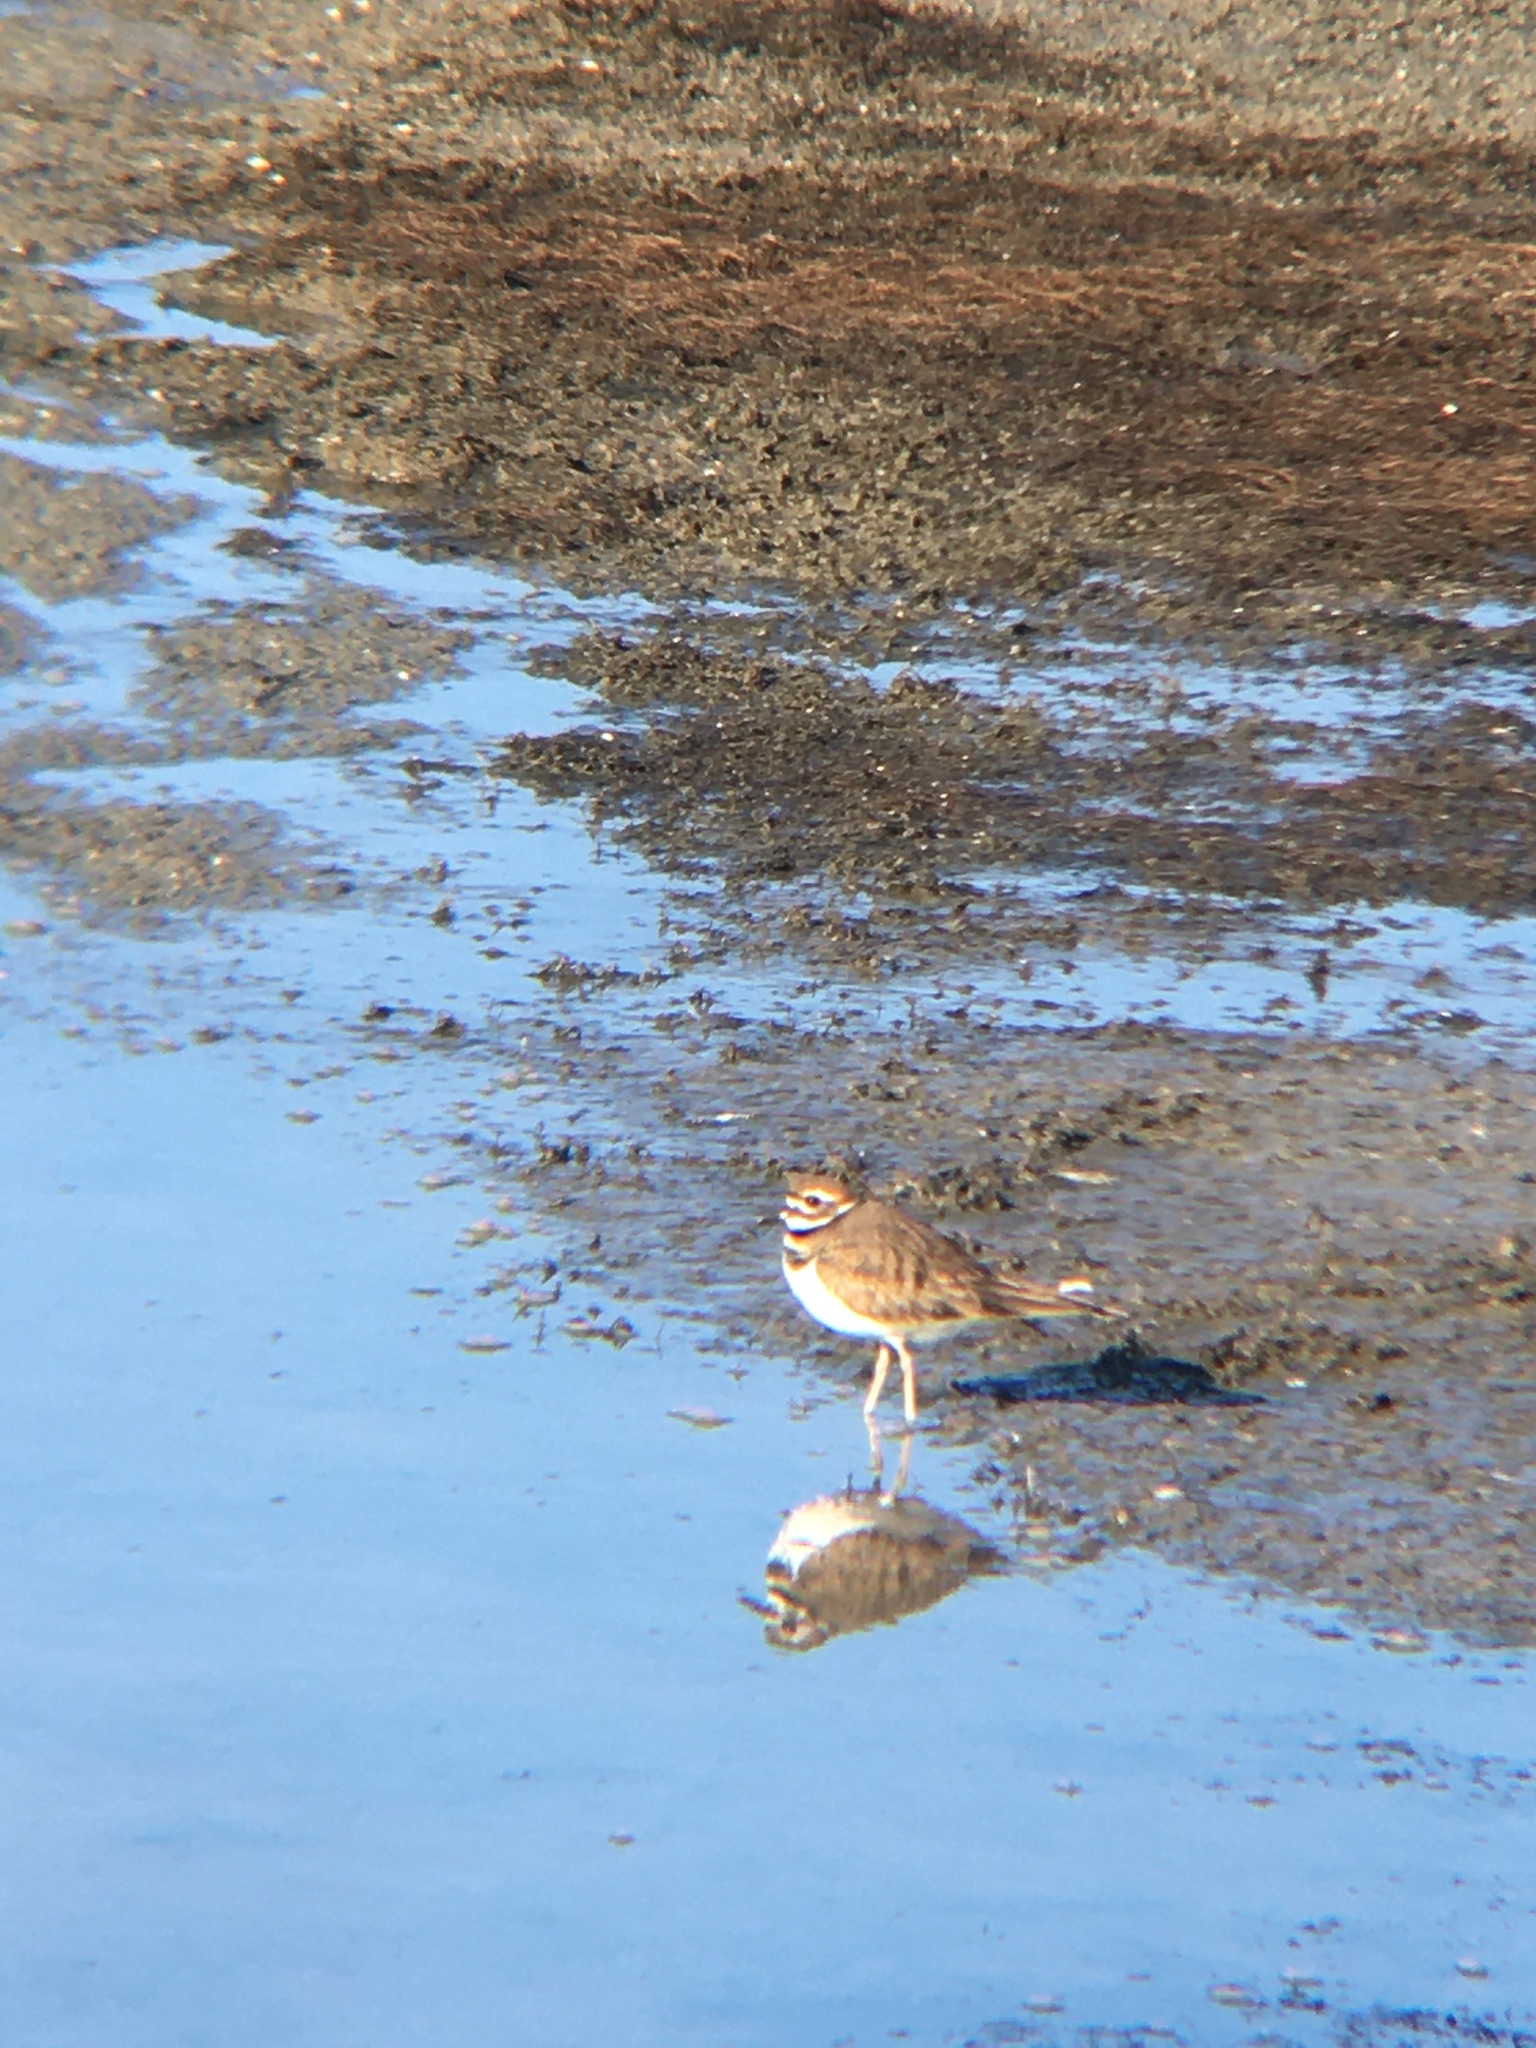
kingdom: Animalia
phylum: Chordata
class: Aves
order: Charadriiformes
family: Charadriidae
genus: Charadrius
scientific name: Charadrius vociferus
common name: Killdeer
